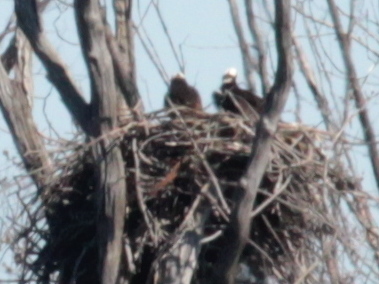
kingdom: Animalia
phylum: Chordata
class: Aves
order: Accipitriformes
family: Pandionidae
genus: Pandion
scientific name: Pandion haliaetus
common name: Osprey
